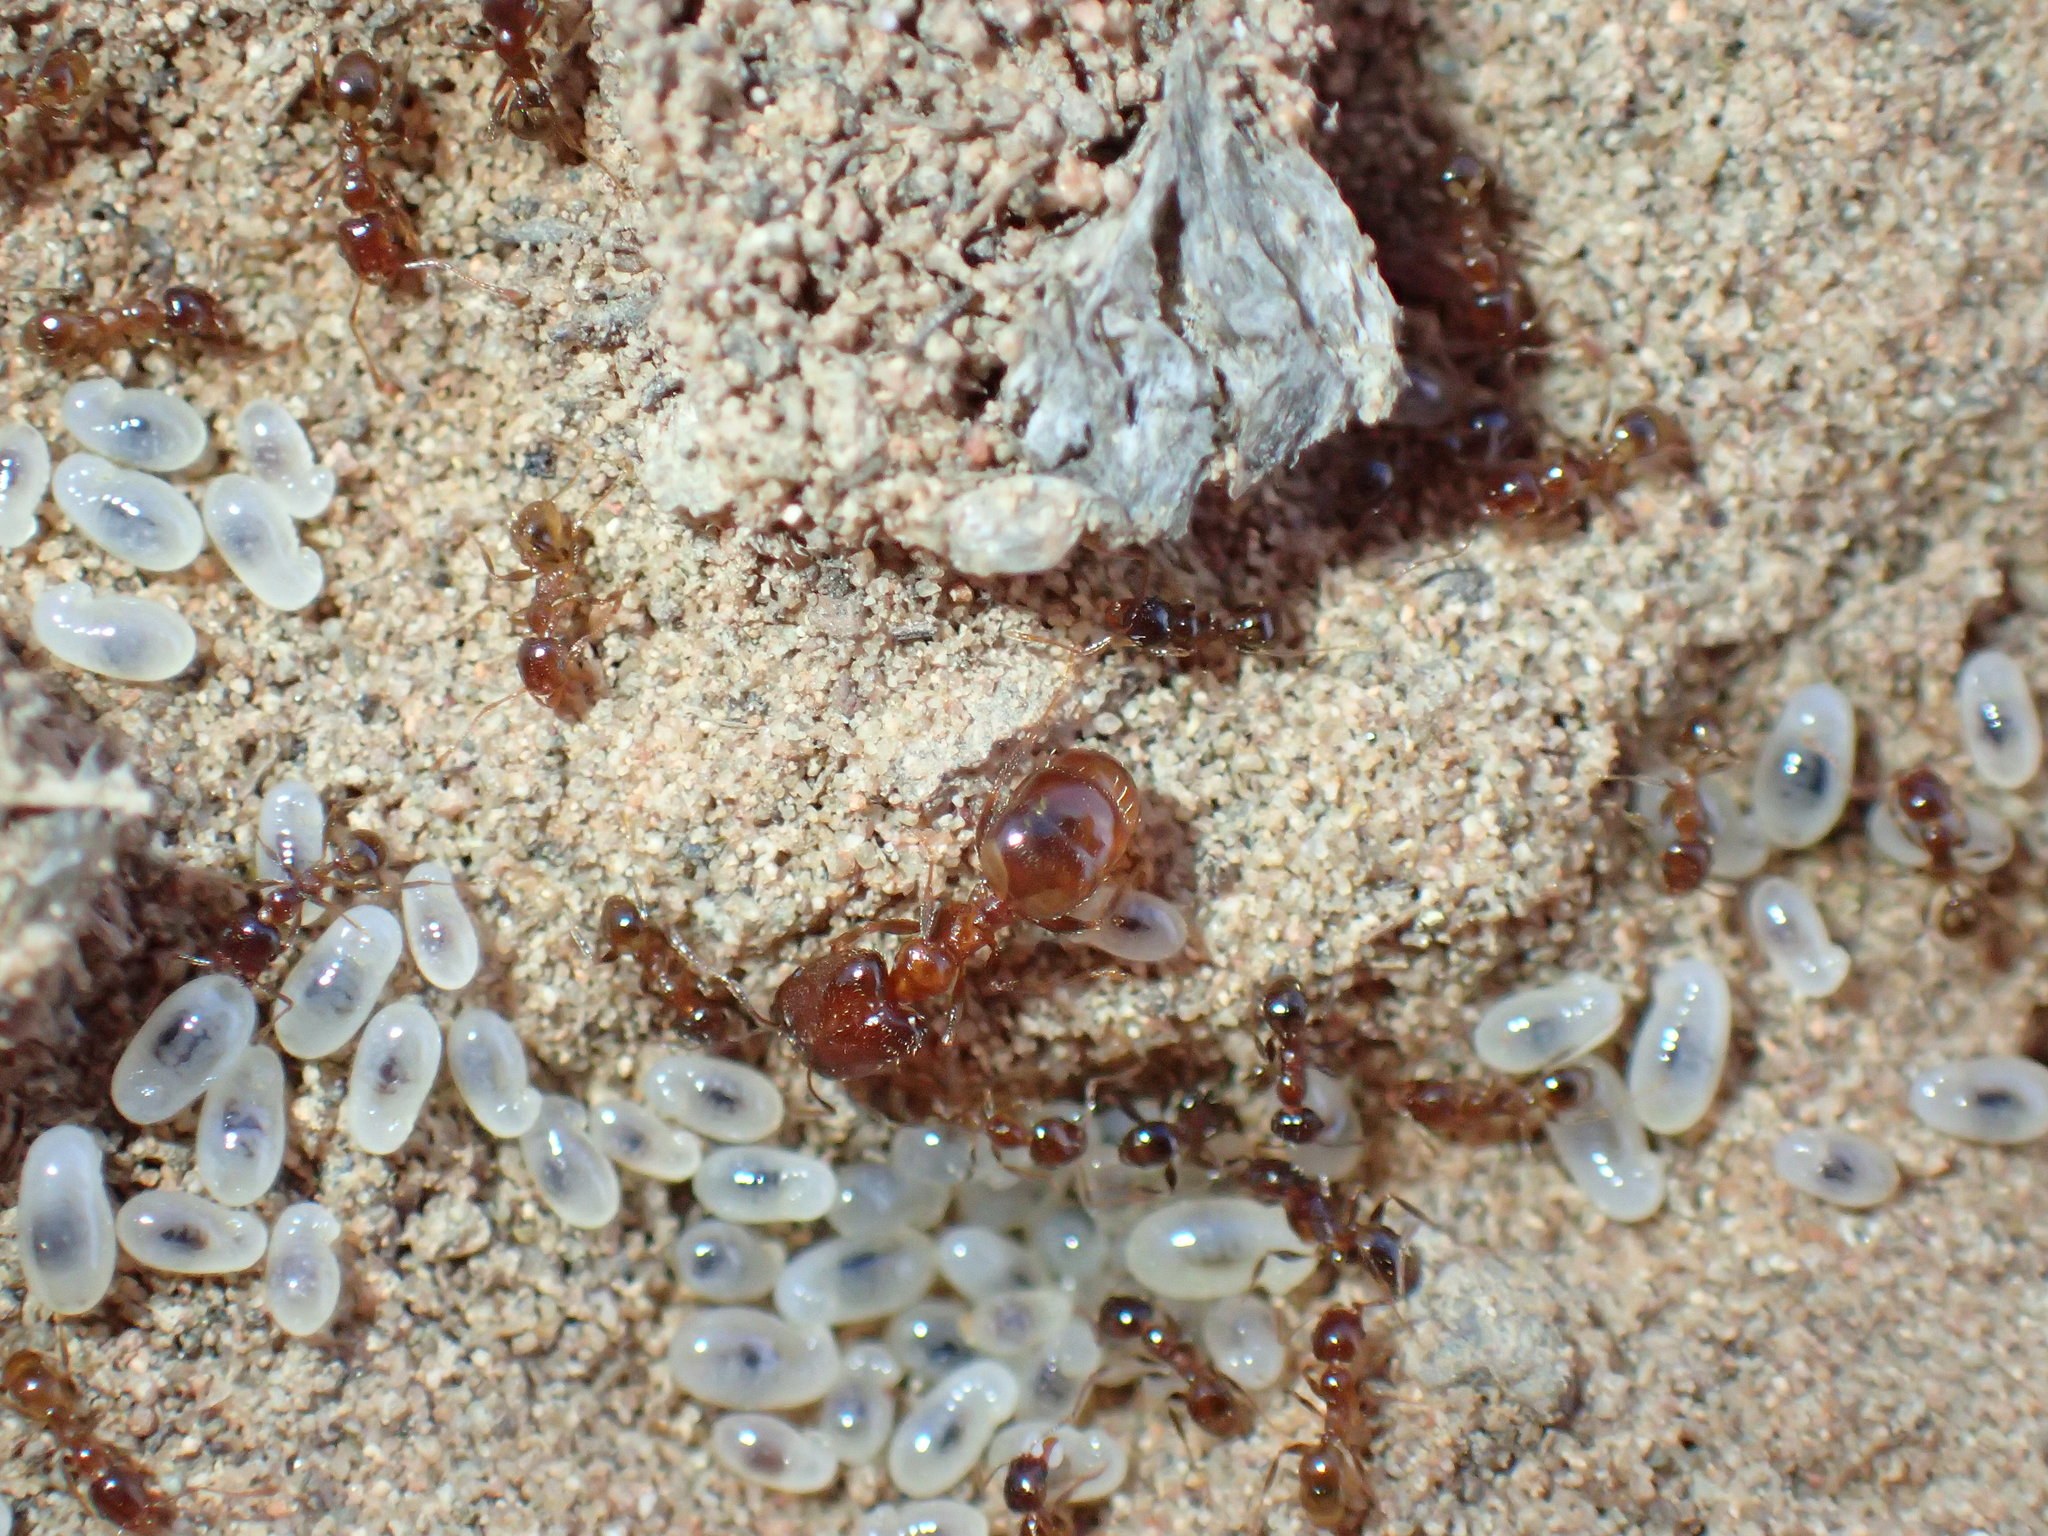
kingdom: Animalia
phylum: Arthropoda
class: Insecta
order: Hymenoptera
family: Formicidae
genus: Pheidole
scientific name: Pheidole capensis
